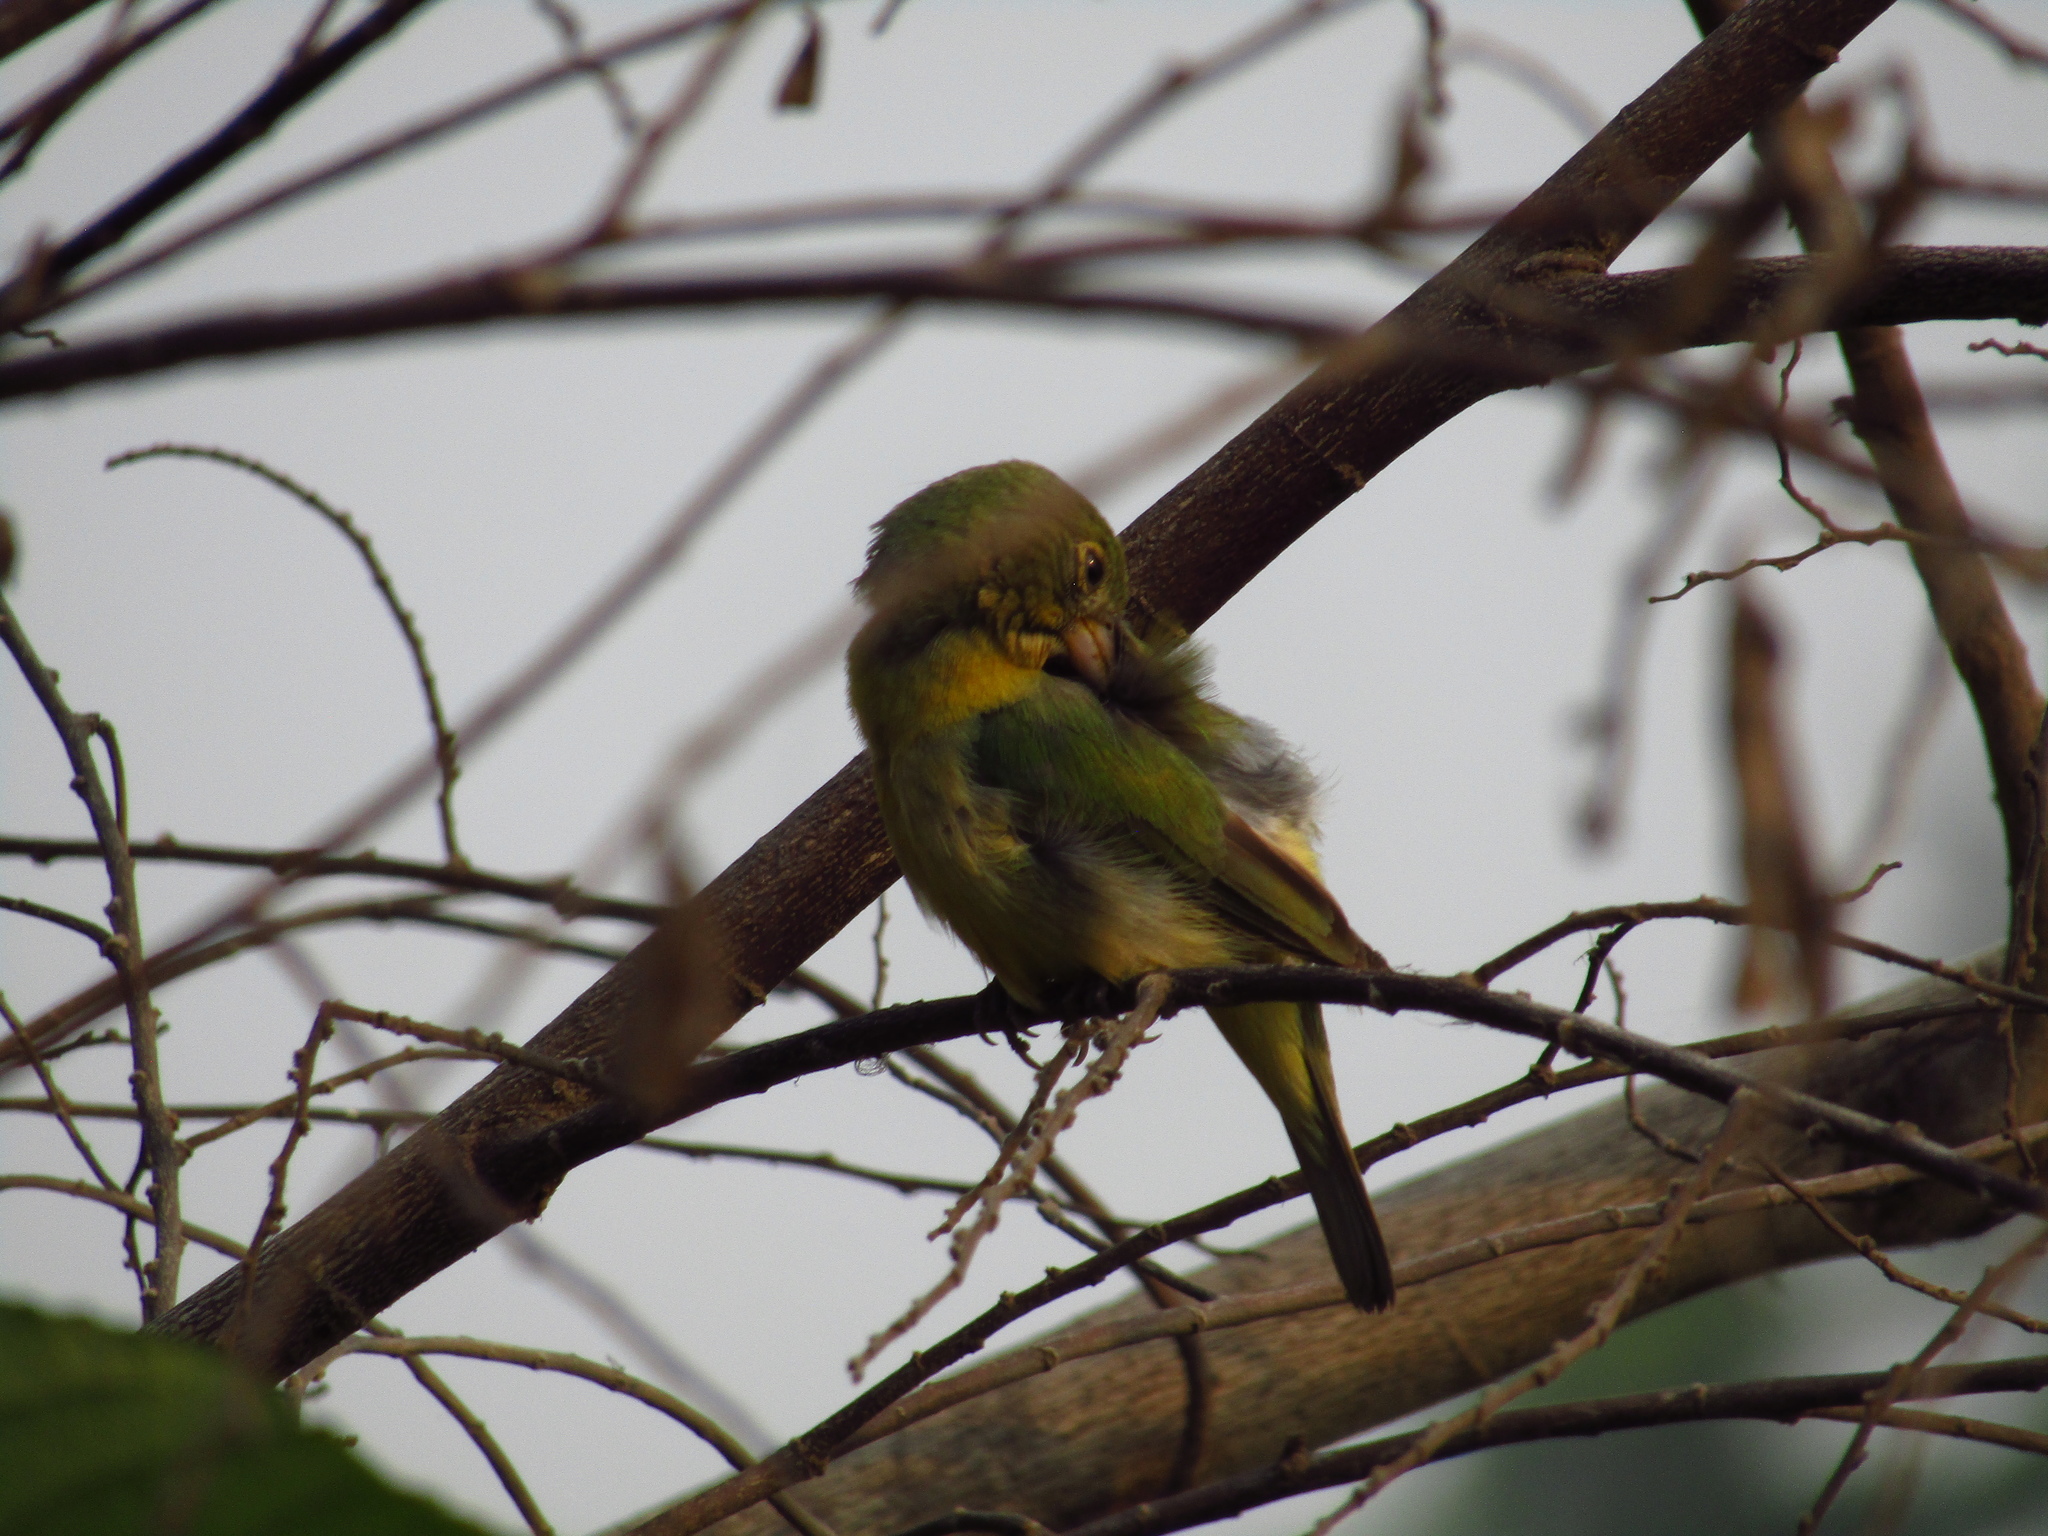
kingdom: Animalia
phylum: Chordata
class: Aves
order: Passeriformes
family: Cardinalidae
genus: Passerina
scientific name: Passerina ciris
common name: Painted bunting
